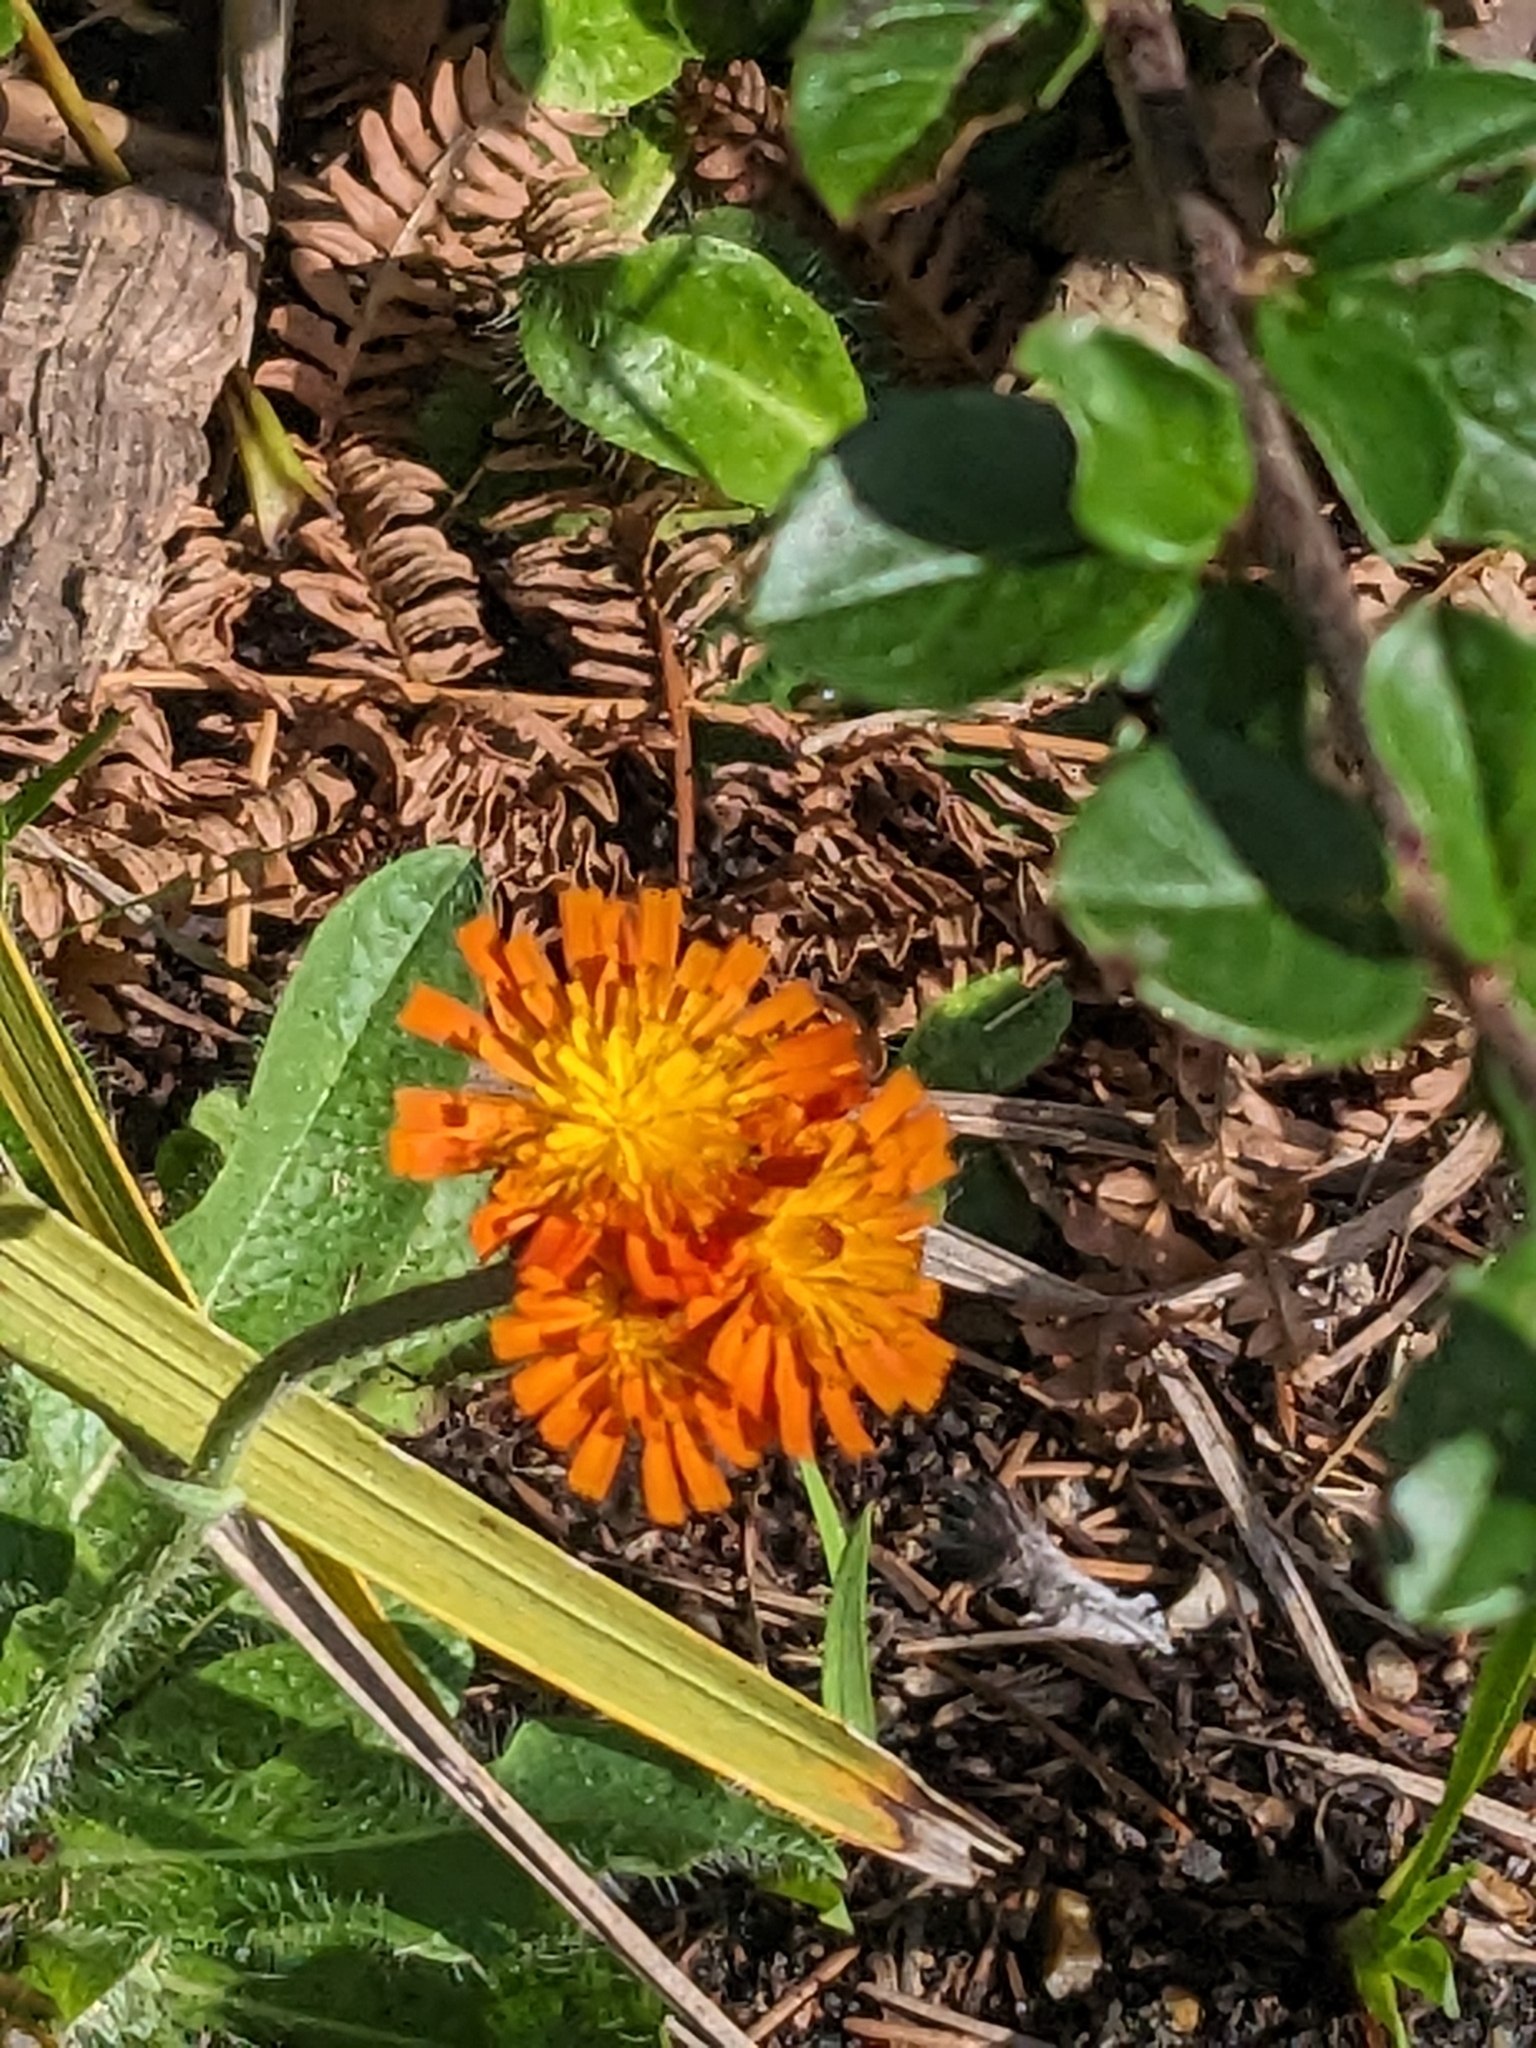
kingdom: Plantae
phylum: Tracheophyta
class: Magnoliopsida
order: Asterales
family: Asteraceae
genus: Pilosella
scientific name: Pilosella aurantiaca
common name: Fox-and-cubs
